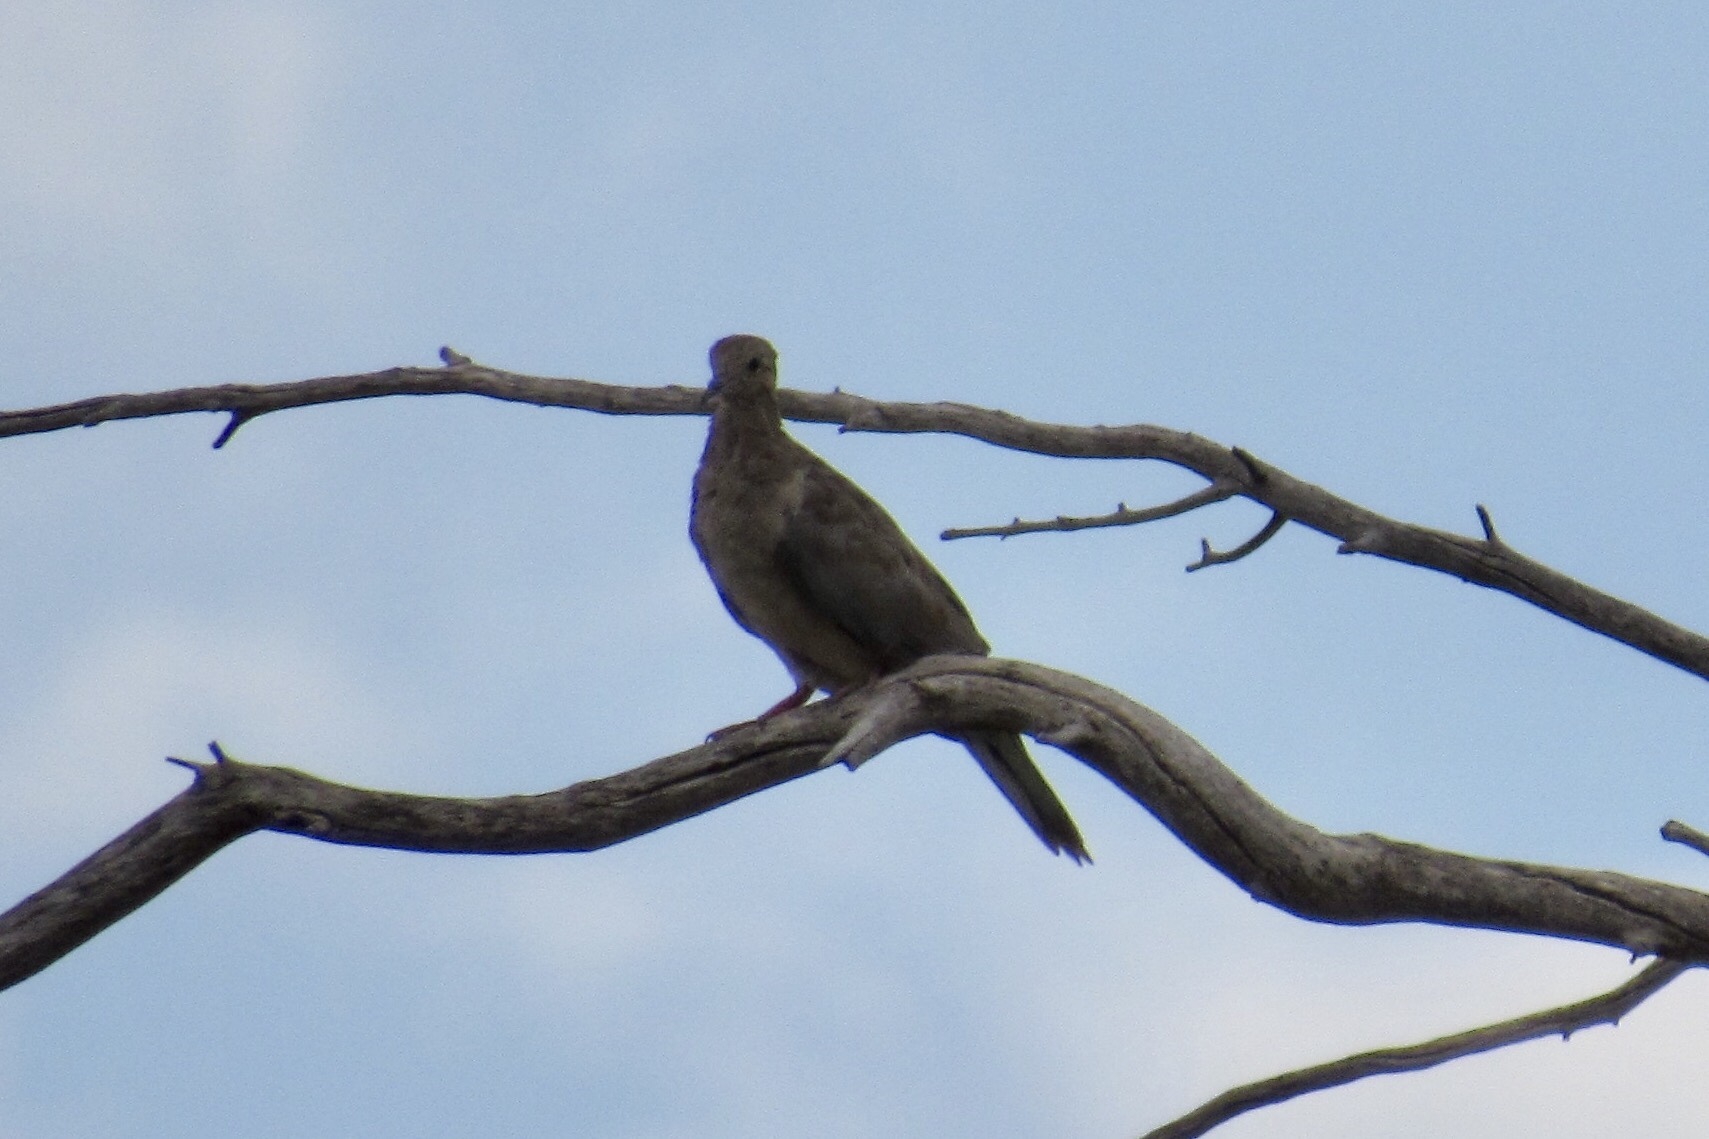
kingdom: Animalia
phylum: Chordata
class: Aves
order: Columbiformes
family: Columbidae
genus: Zenaida
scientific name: Zenaida macroura
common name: Mourning dove
